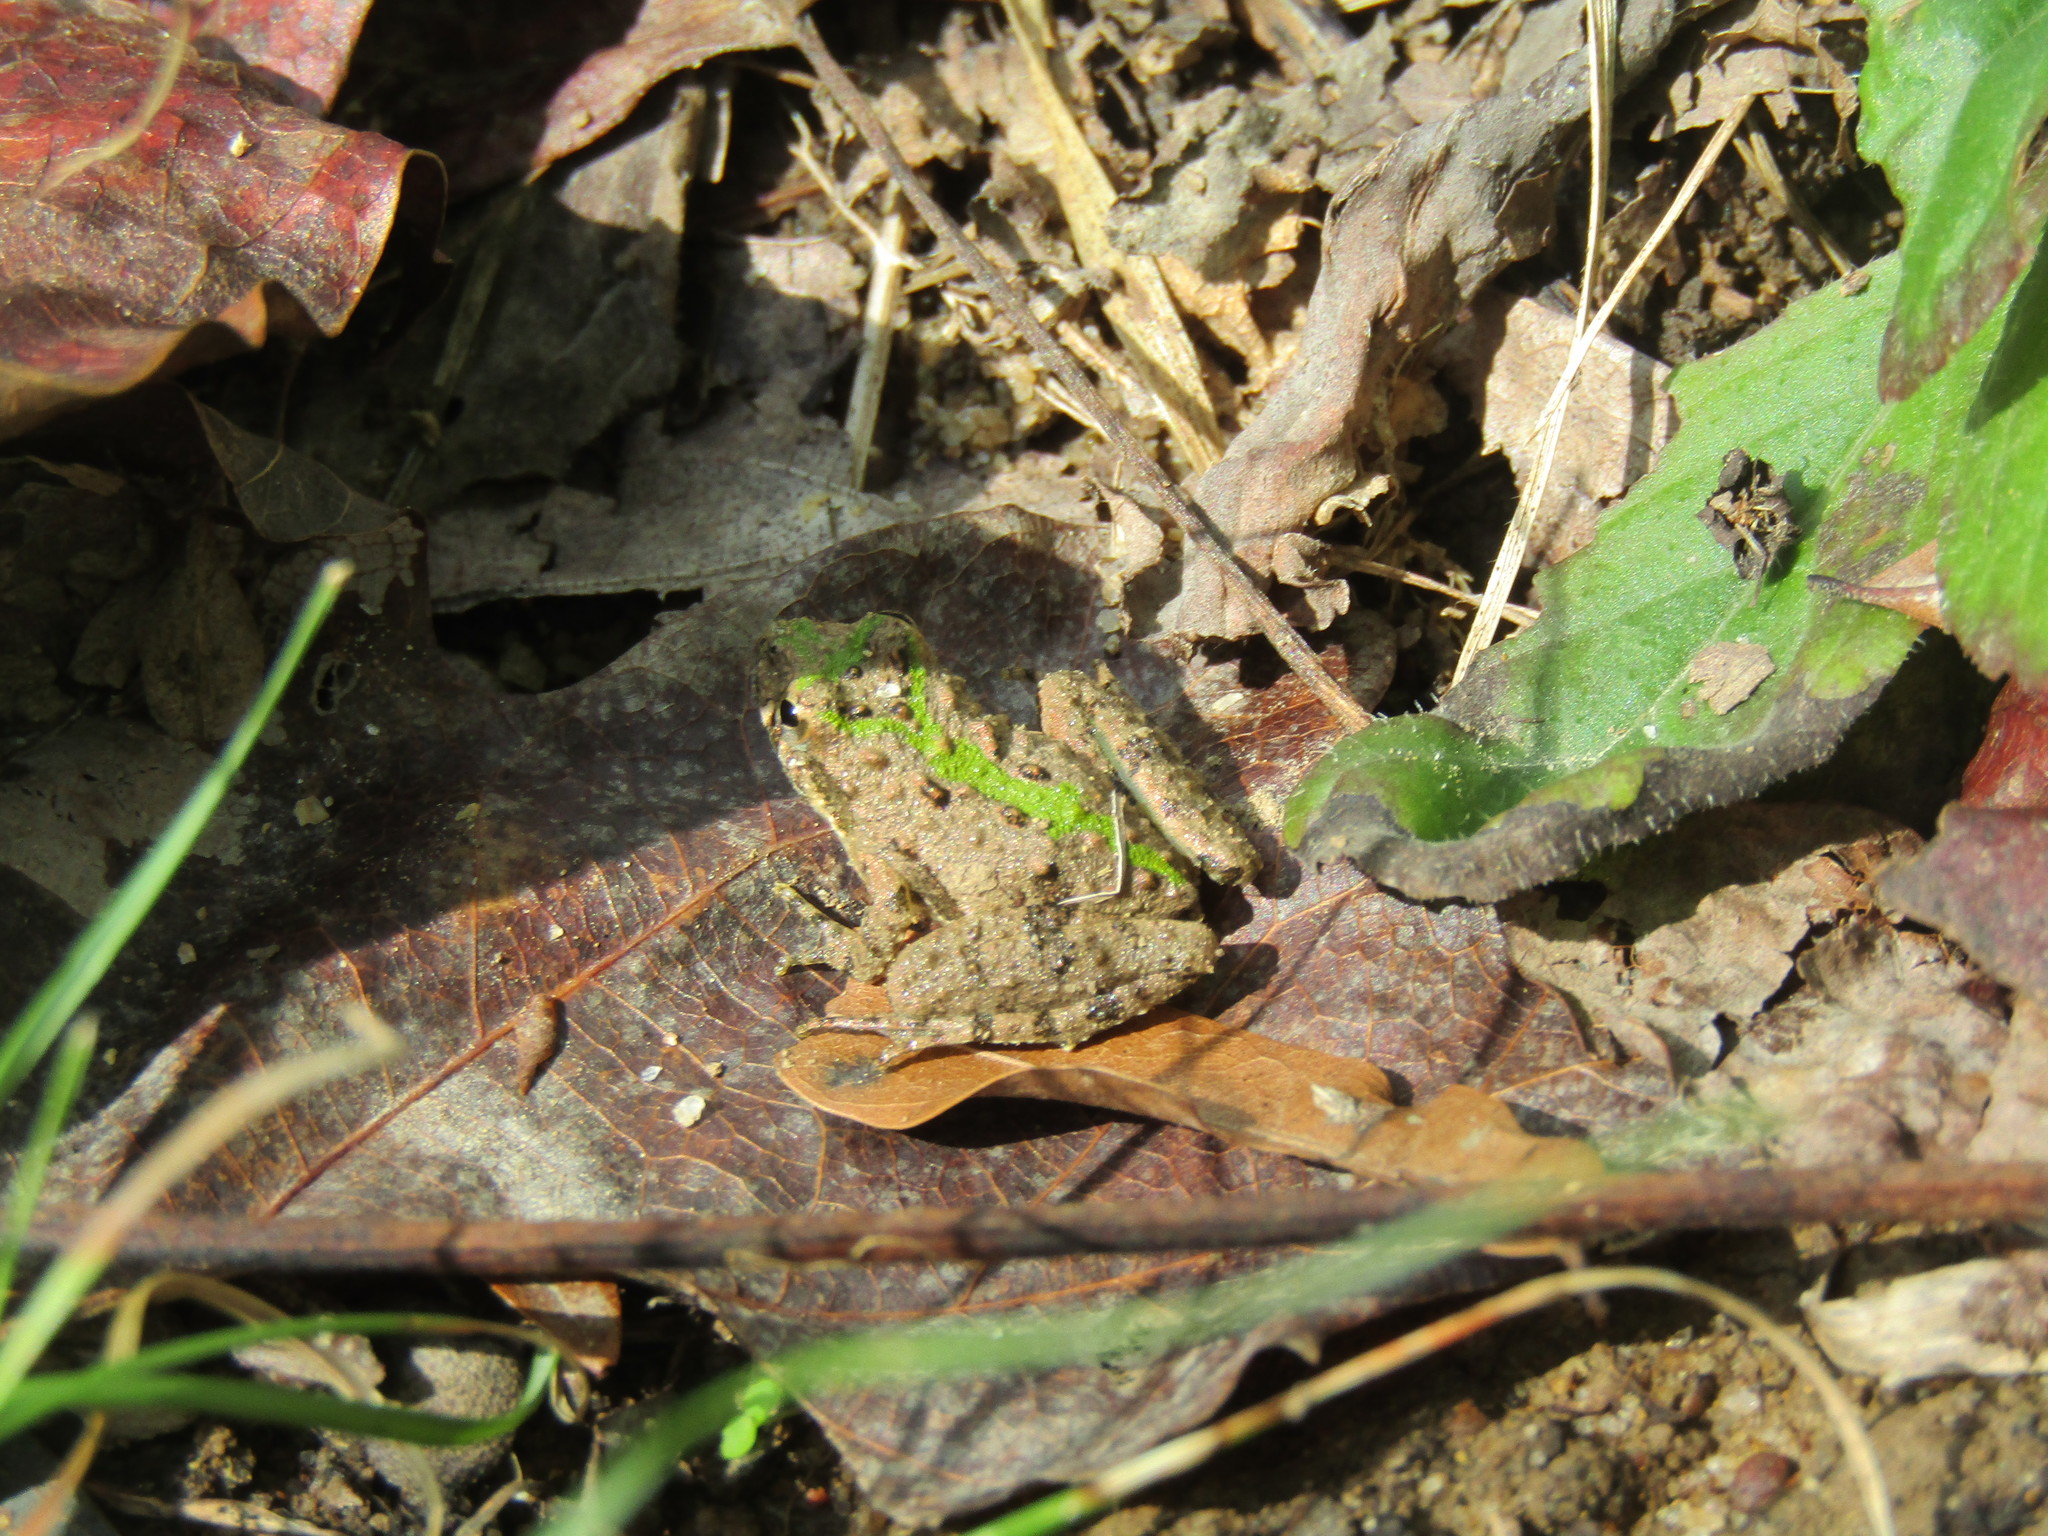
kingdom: Animalia
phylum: Chordata
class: Amphibia
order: Anura
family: Hylidae
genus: Acris
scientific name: Acris crepitans
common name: Northern cricket frog
